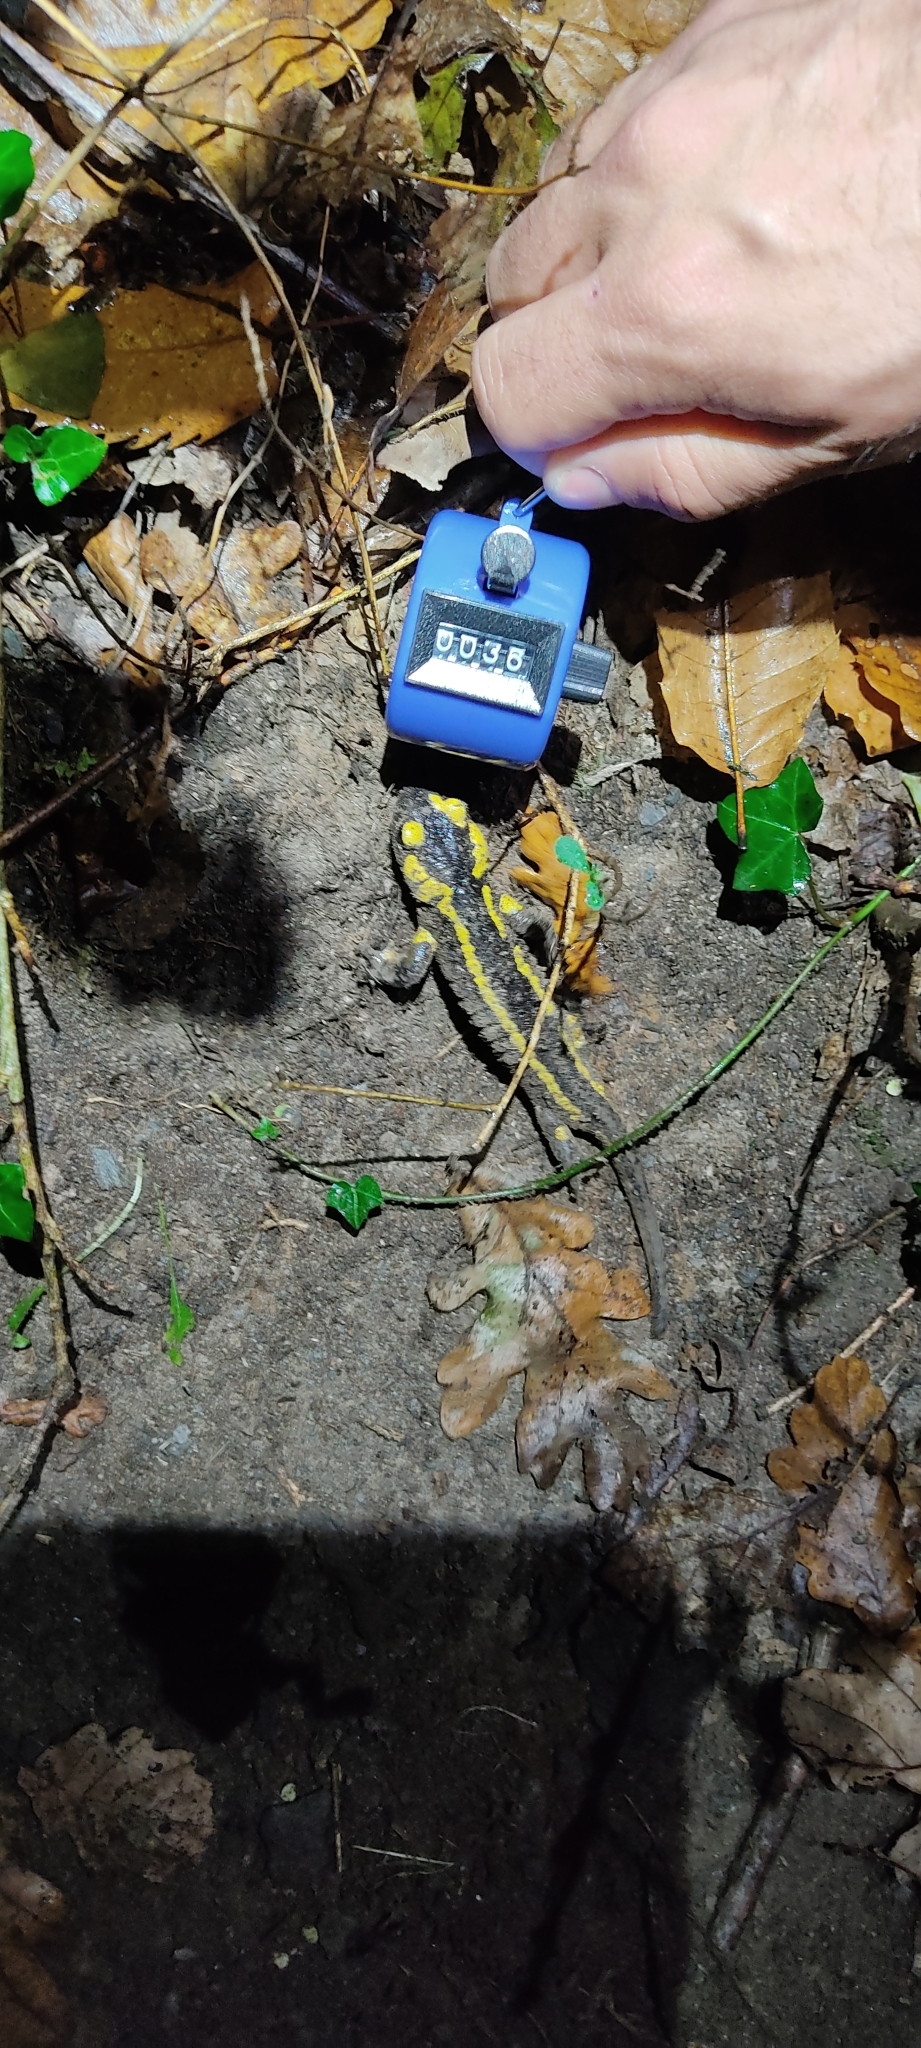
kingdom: Animalia
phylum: Chordata
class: Amphibia
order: Caudata
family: Salamandridae
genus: Salamandra
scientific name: Salamandra salamandra
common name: Fire salamander
